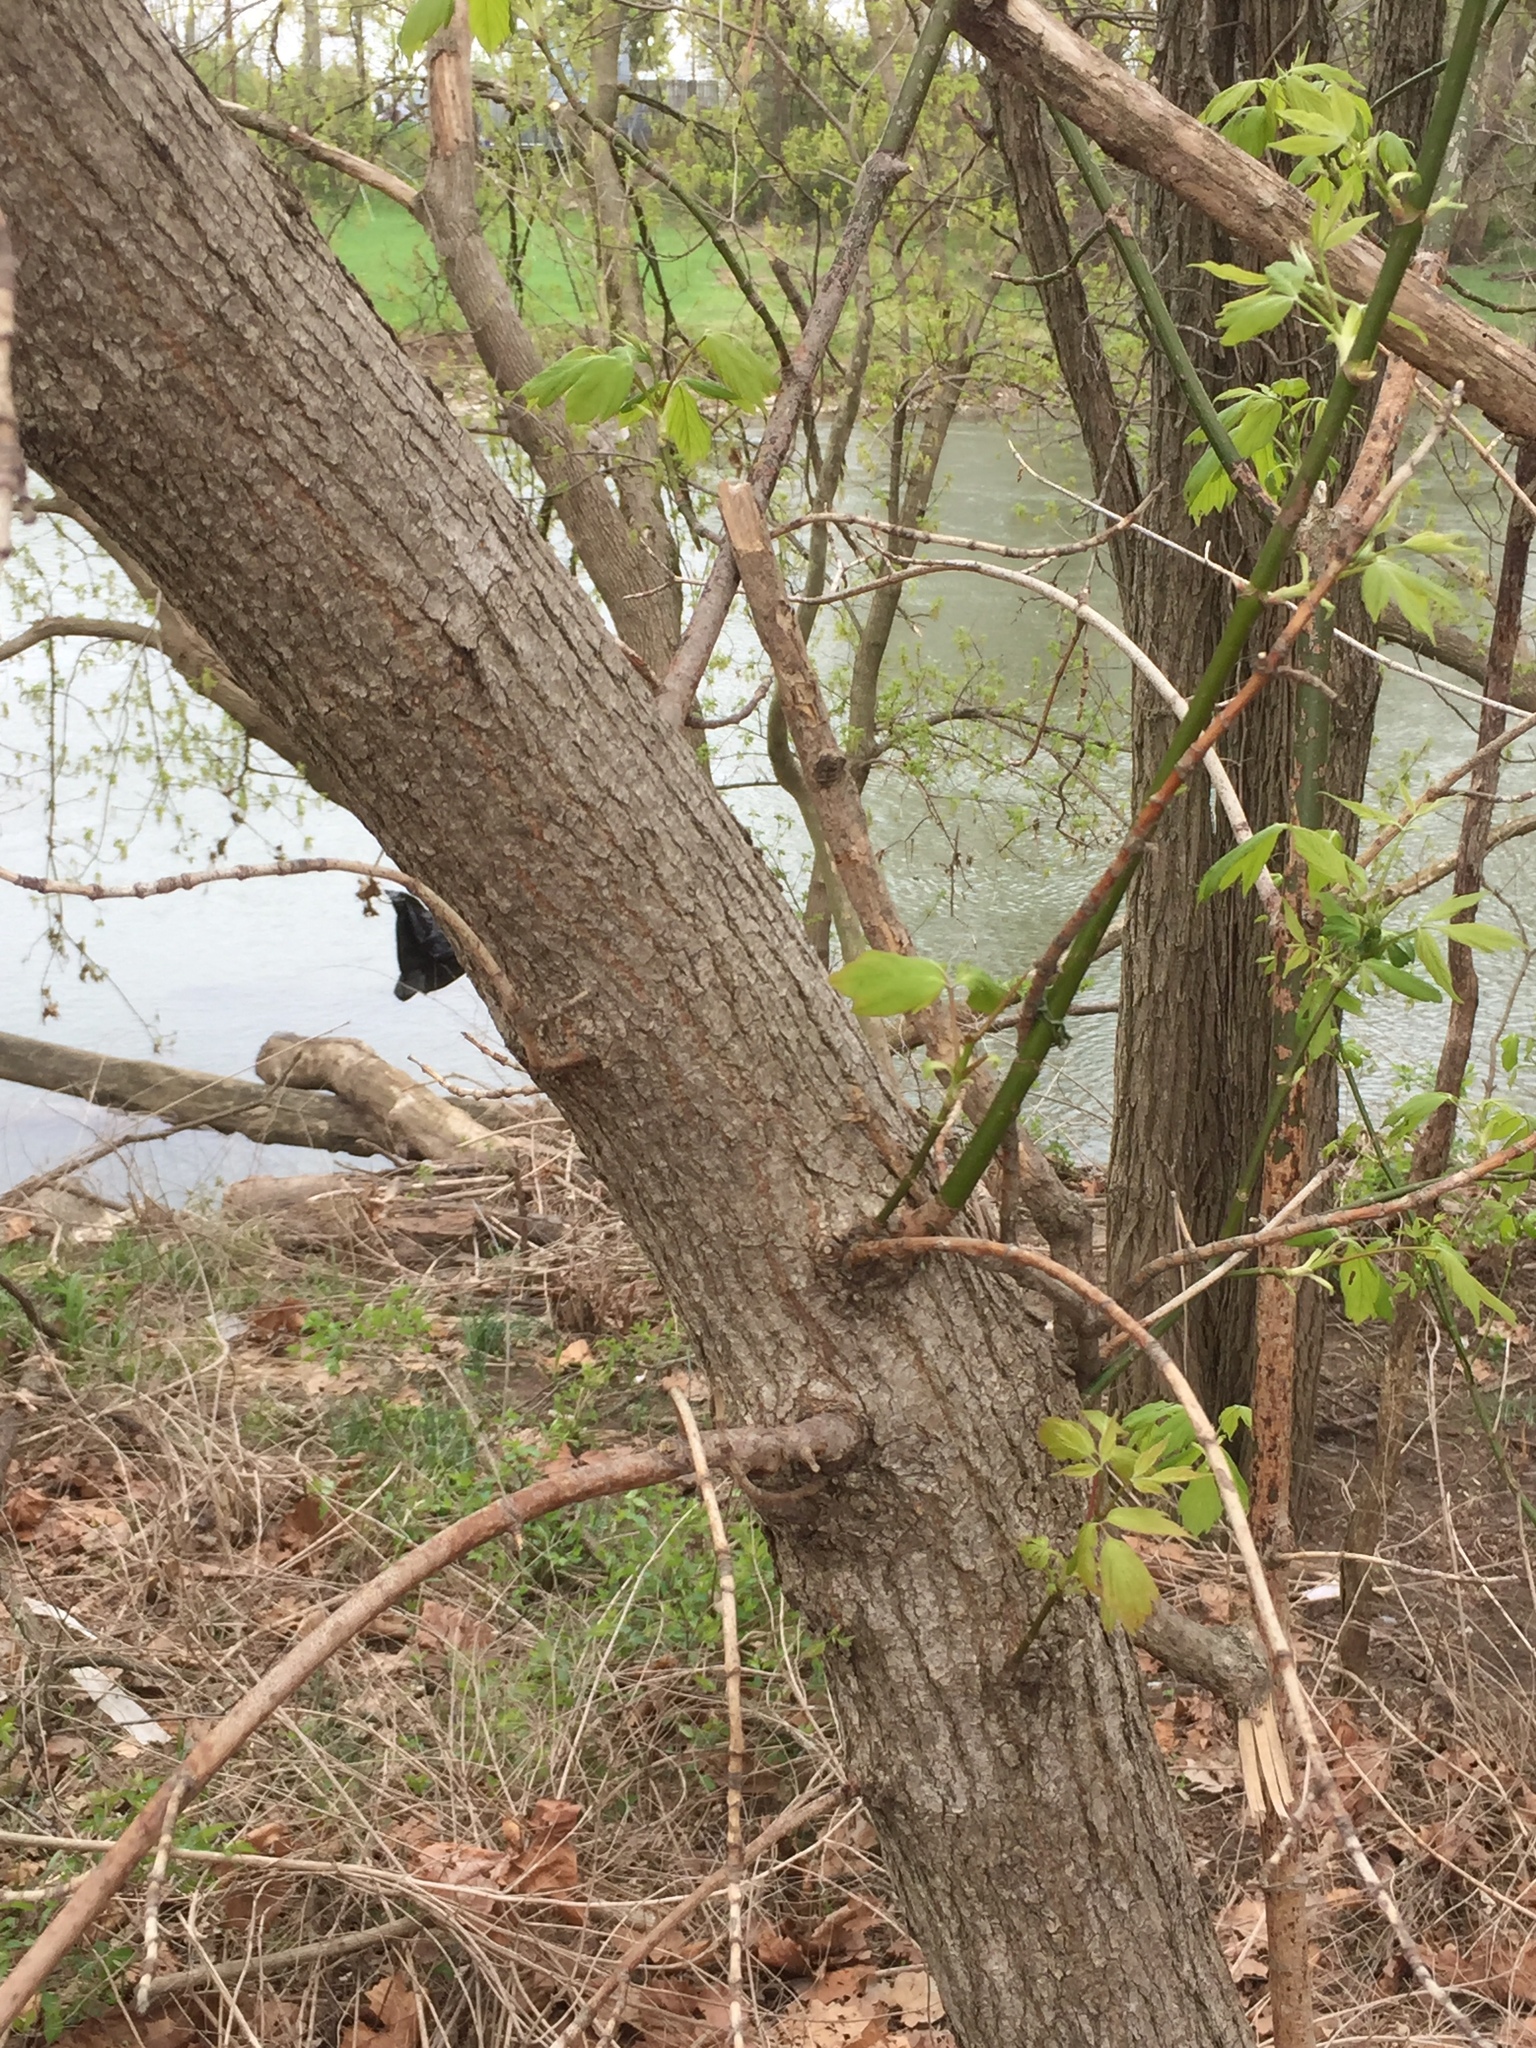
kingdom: Plantae
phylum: Tracheophyta
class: Magnoliopsida
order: Sapindales
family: Sapindaceae
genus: Acer
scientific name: Acer negundo
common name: Ashleaf maple
